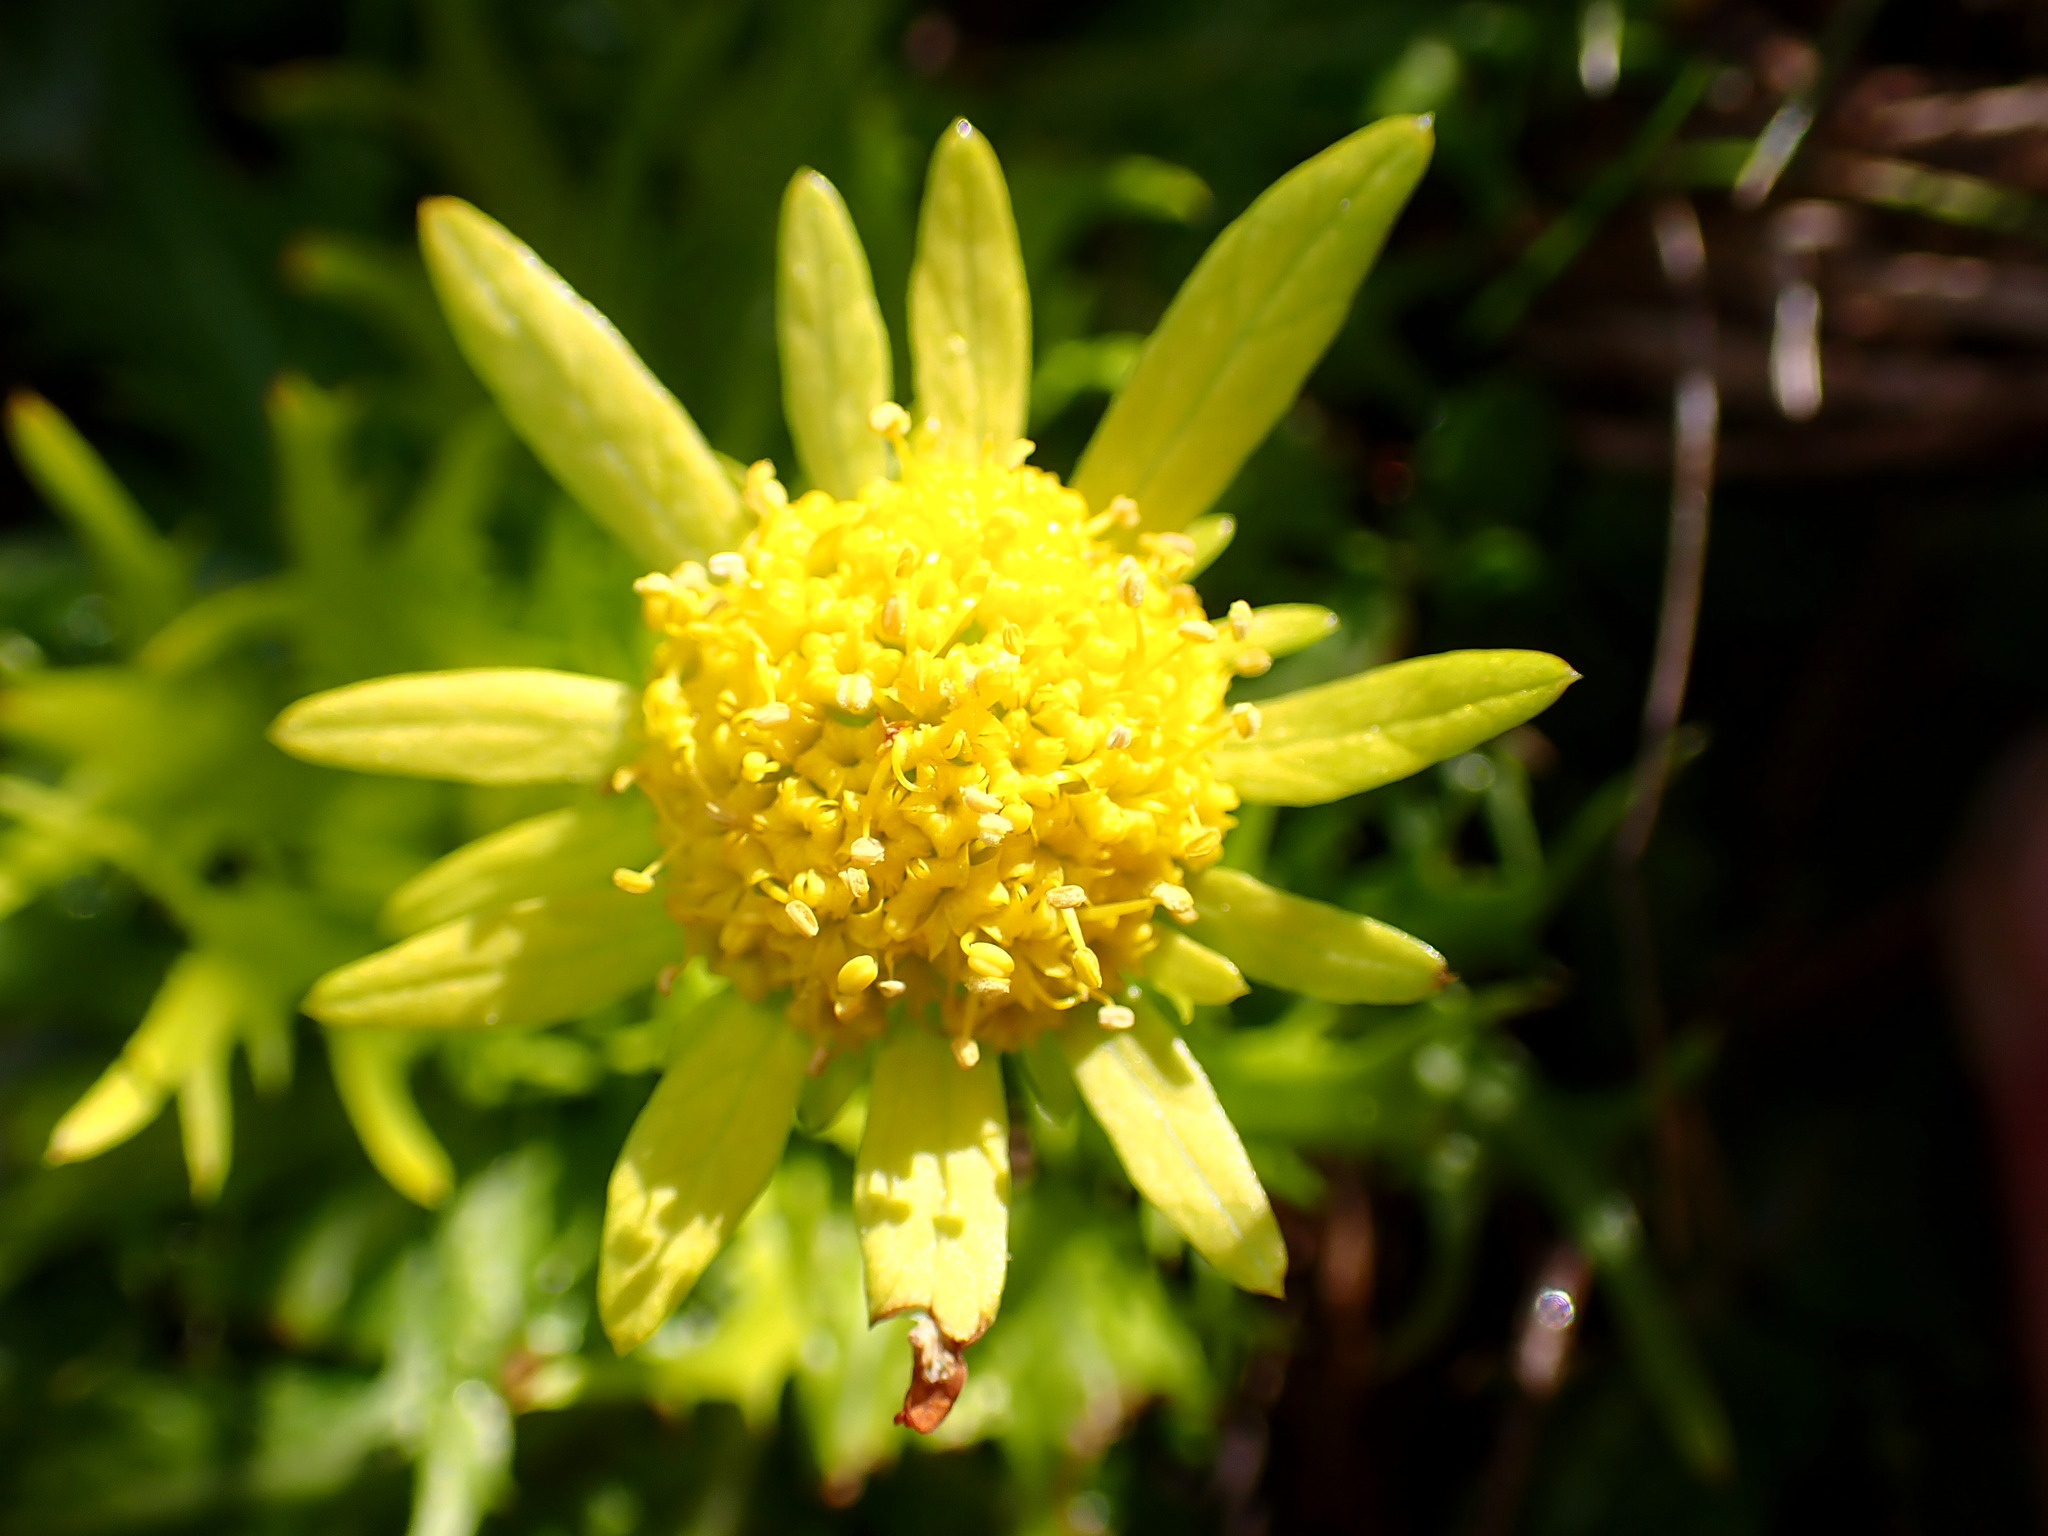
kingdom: Plantae
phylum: Tracheophyta
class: Magnoliopsida
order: Apiales
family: Apiaceae
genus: Sanicula
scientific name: Sanicula arctopoides
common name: Footsteps-of-spring
